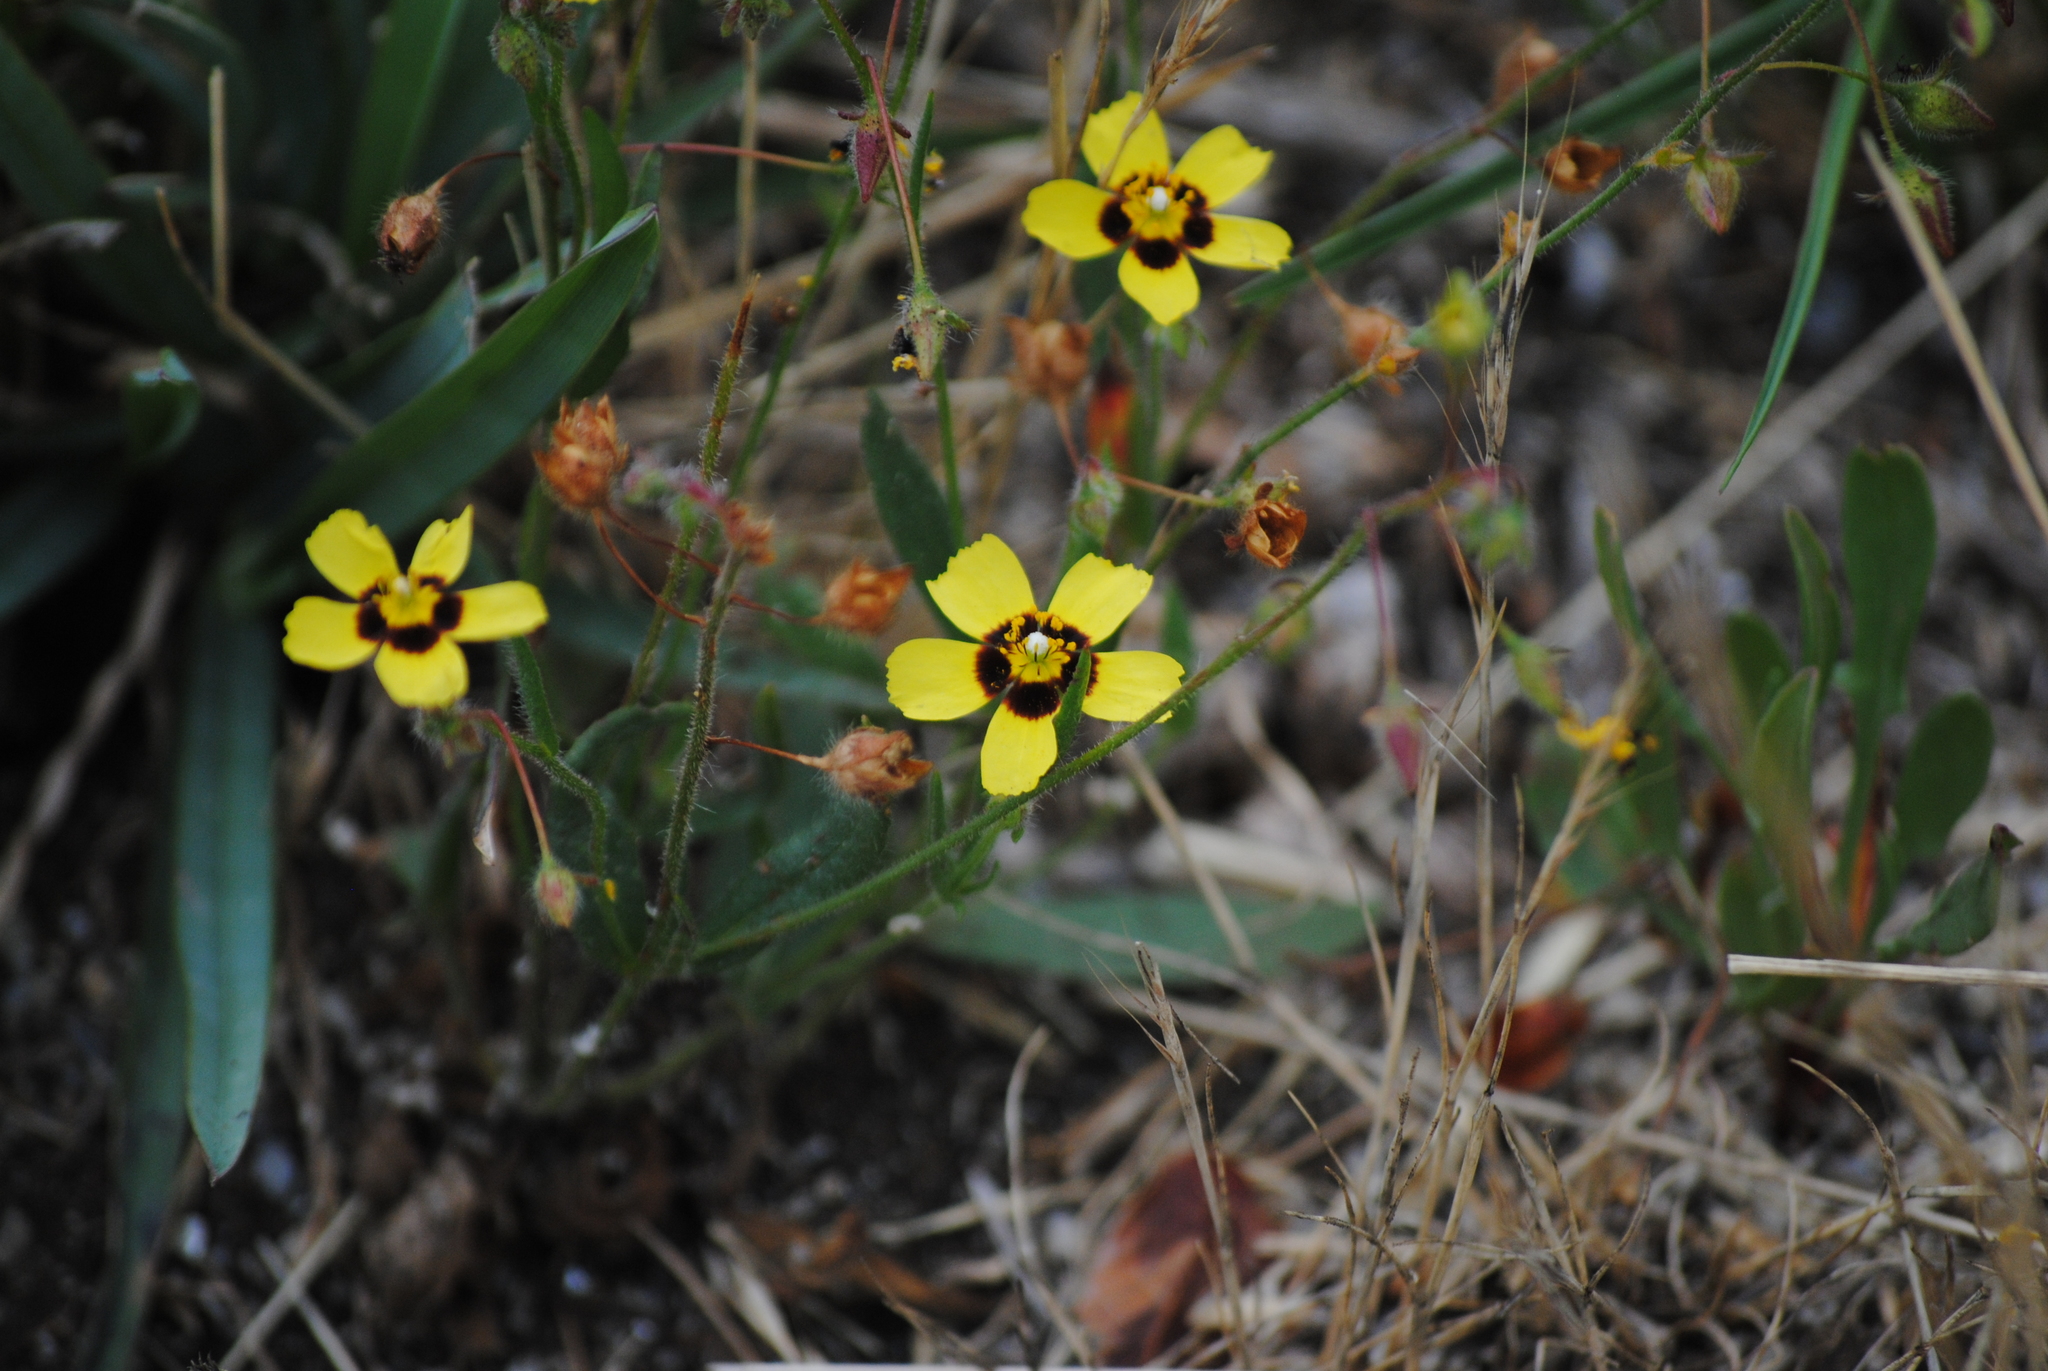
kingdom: Plantae
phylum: Tracheophyta
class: Magnoliopsida
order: Malvales
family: Cistaceae
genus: Tuberaria
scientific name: Tuberaria guttata
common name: Spotted rock-rose
